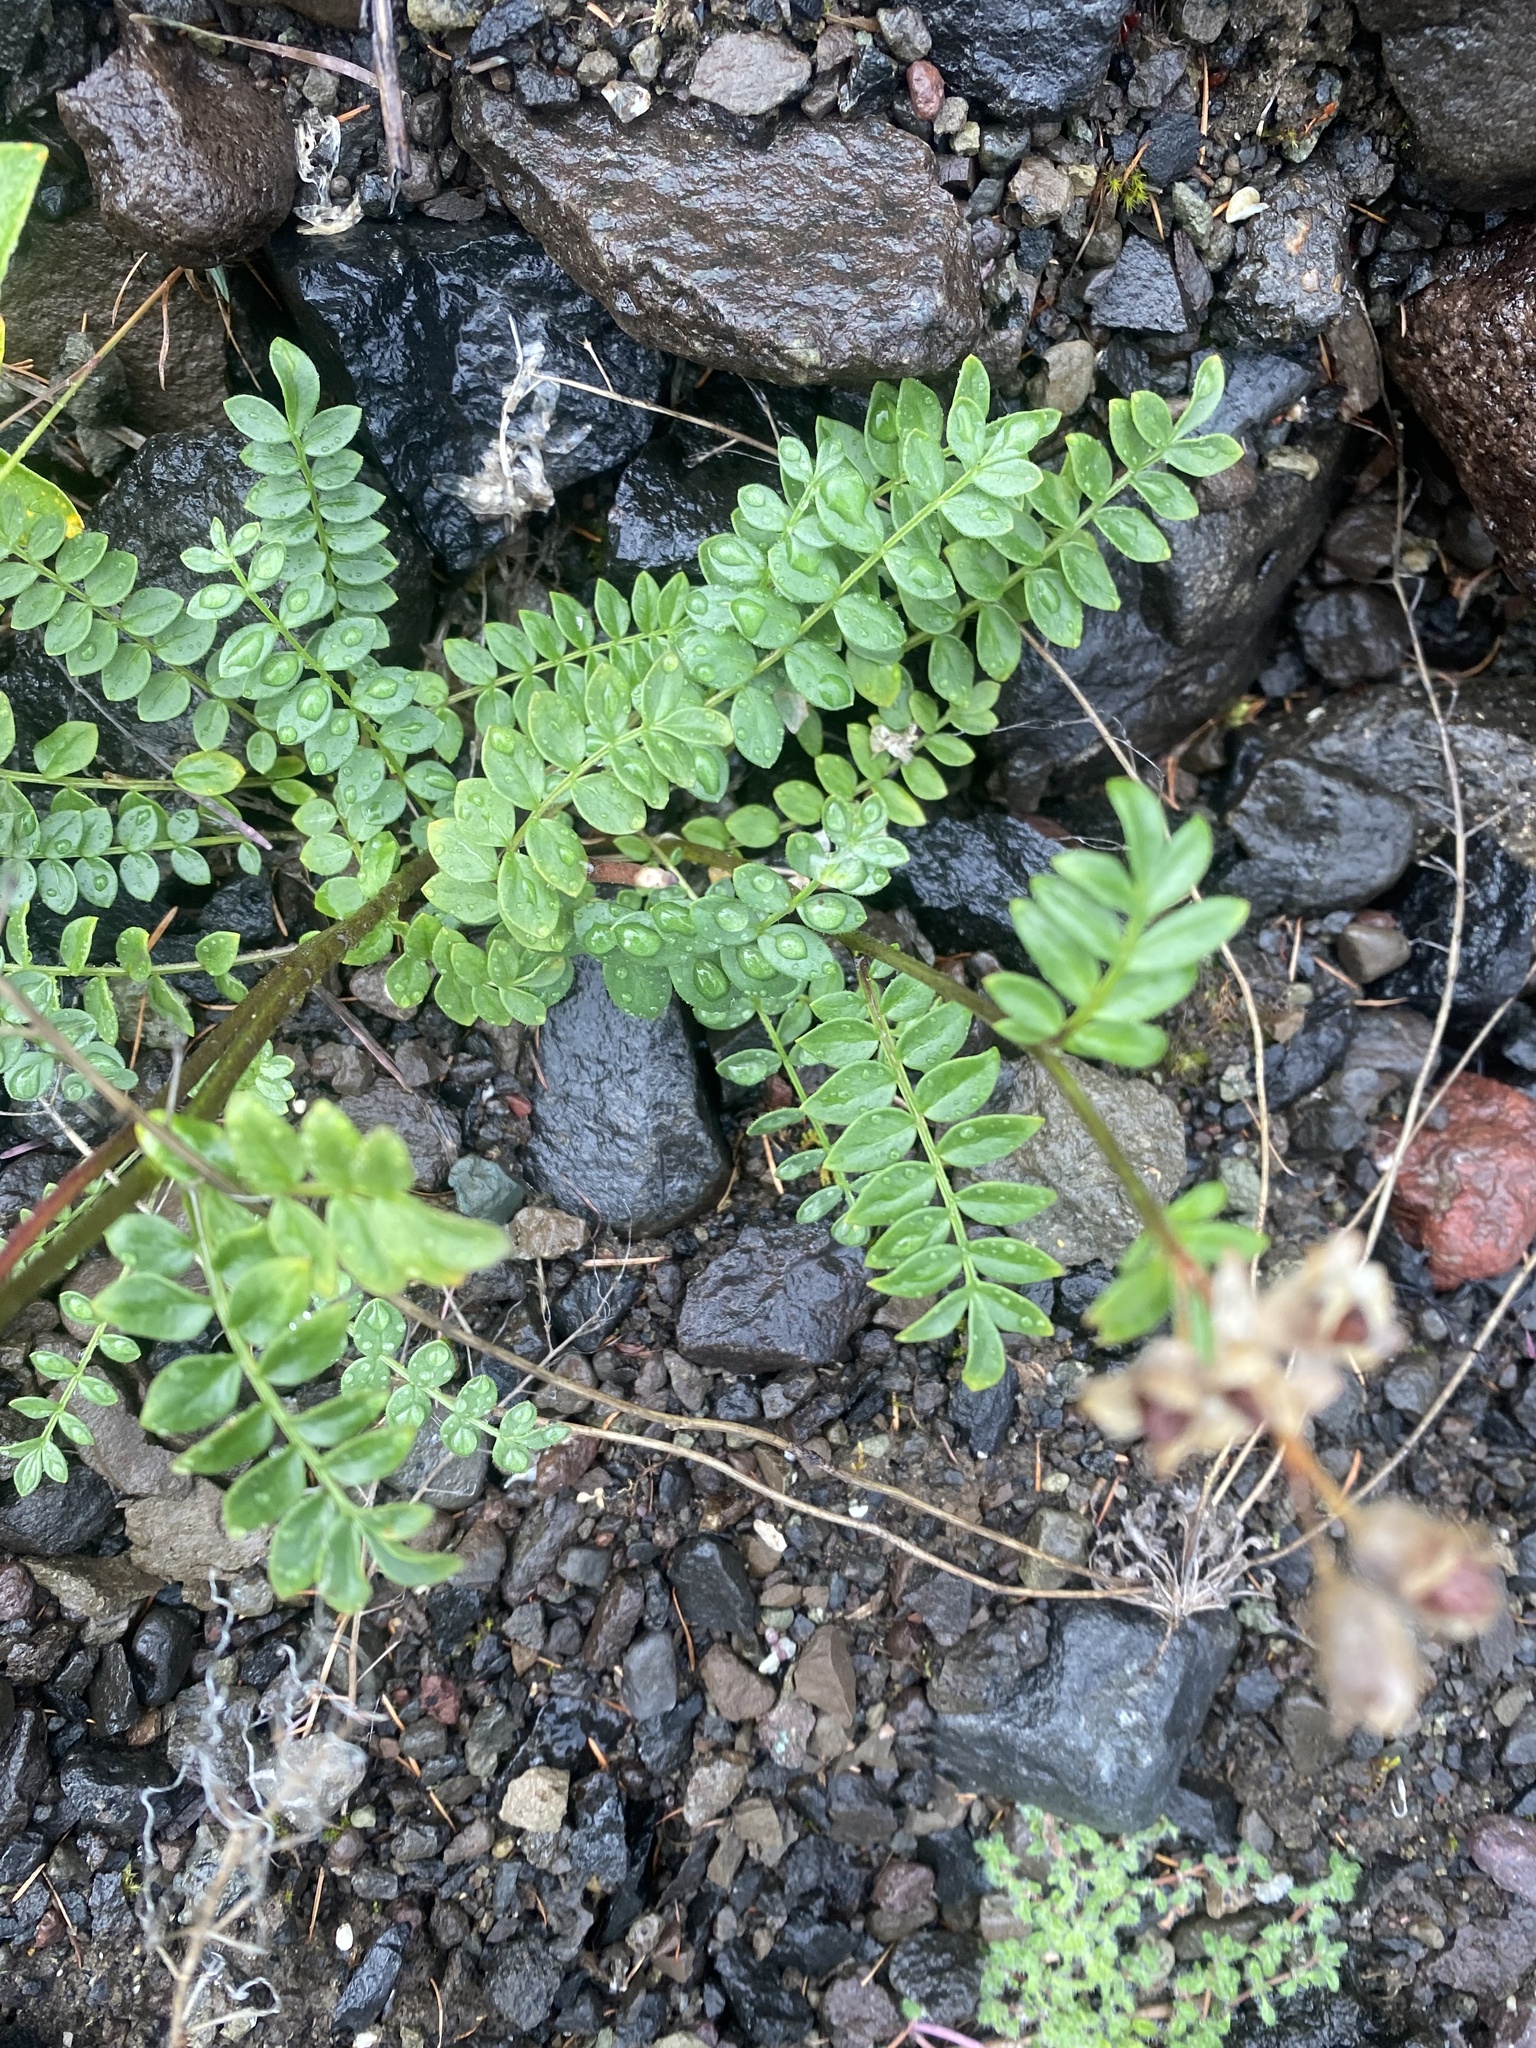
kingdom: Plantae
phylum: Tracheophyta
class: Magnoliopsida
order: Ericales
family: Polemoniaceae
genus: Polemonium
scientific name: Polemonium boreale
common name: Boreal jacob's-ladder
